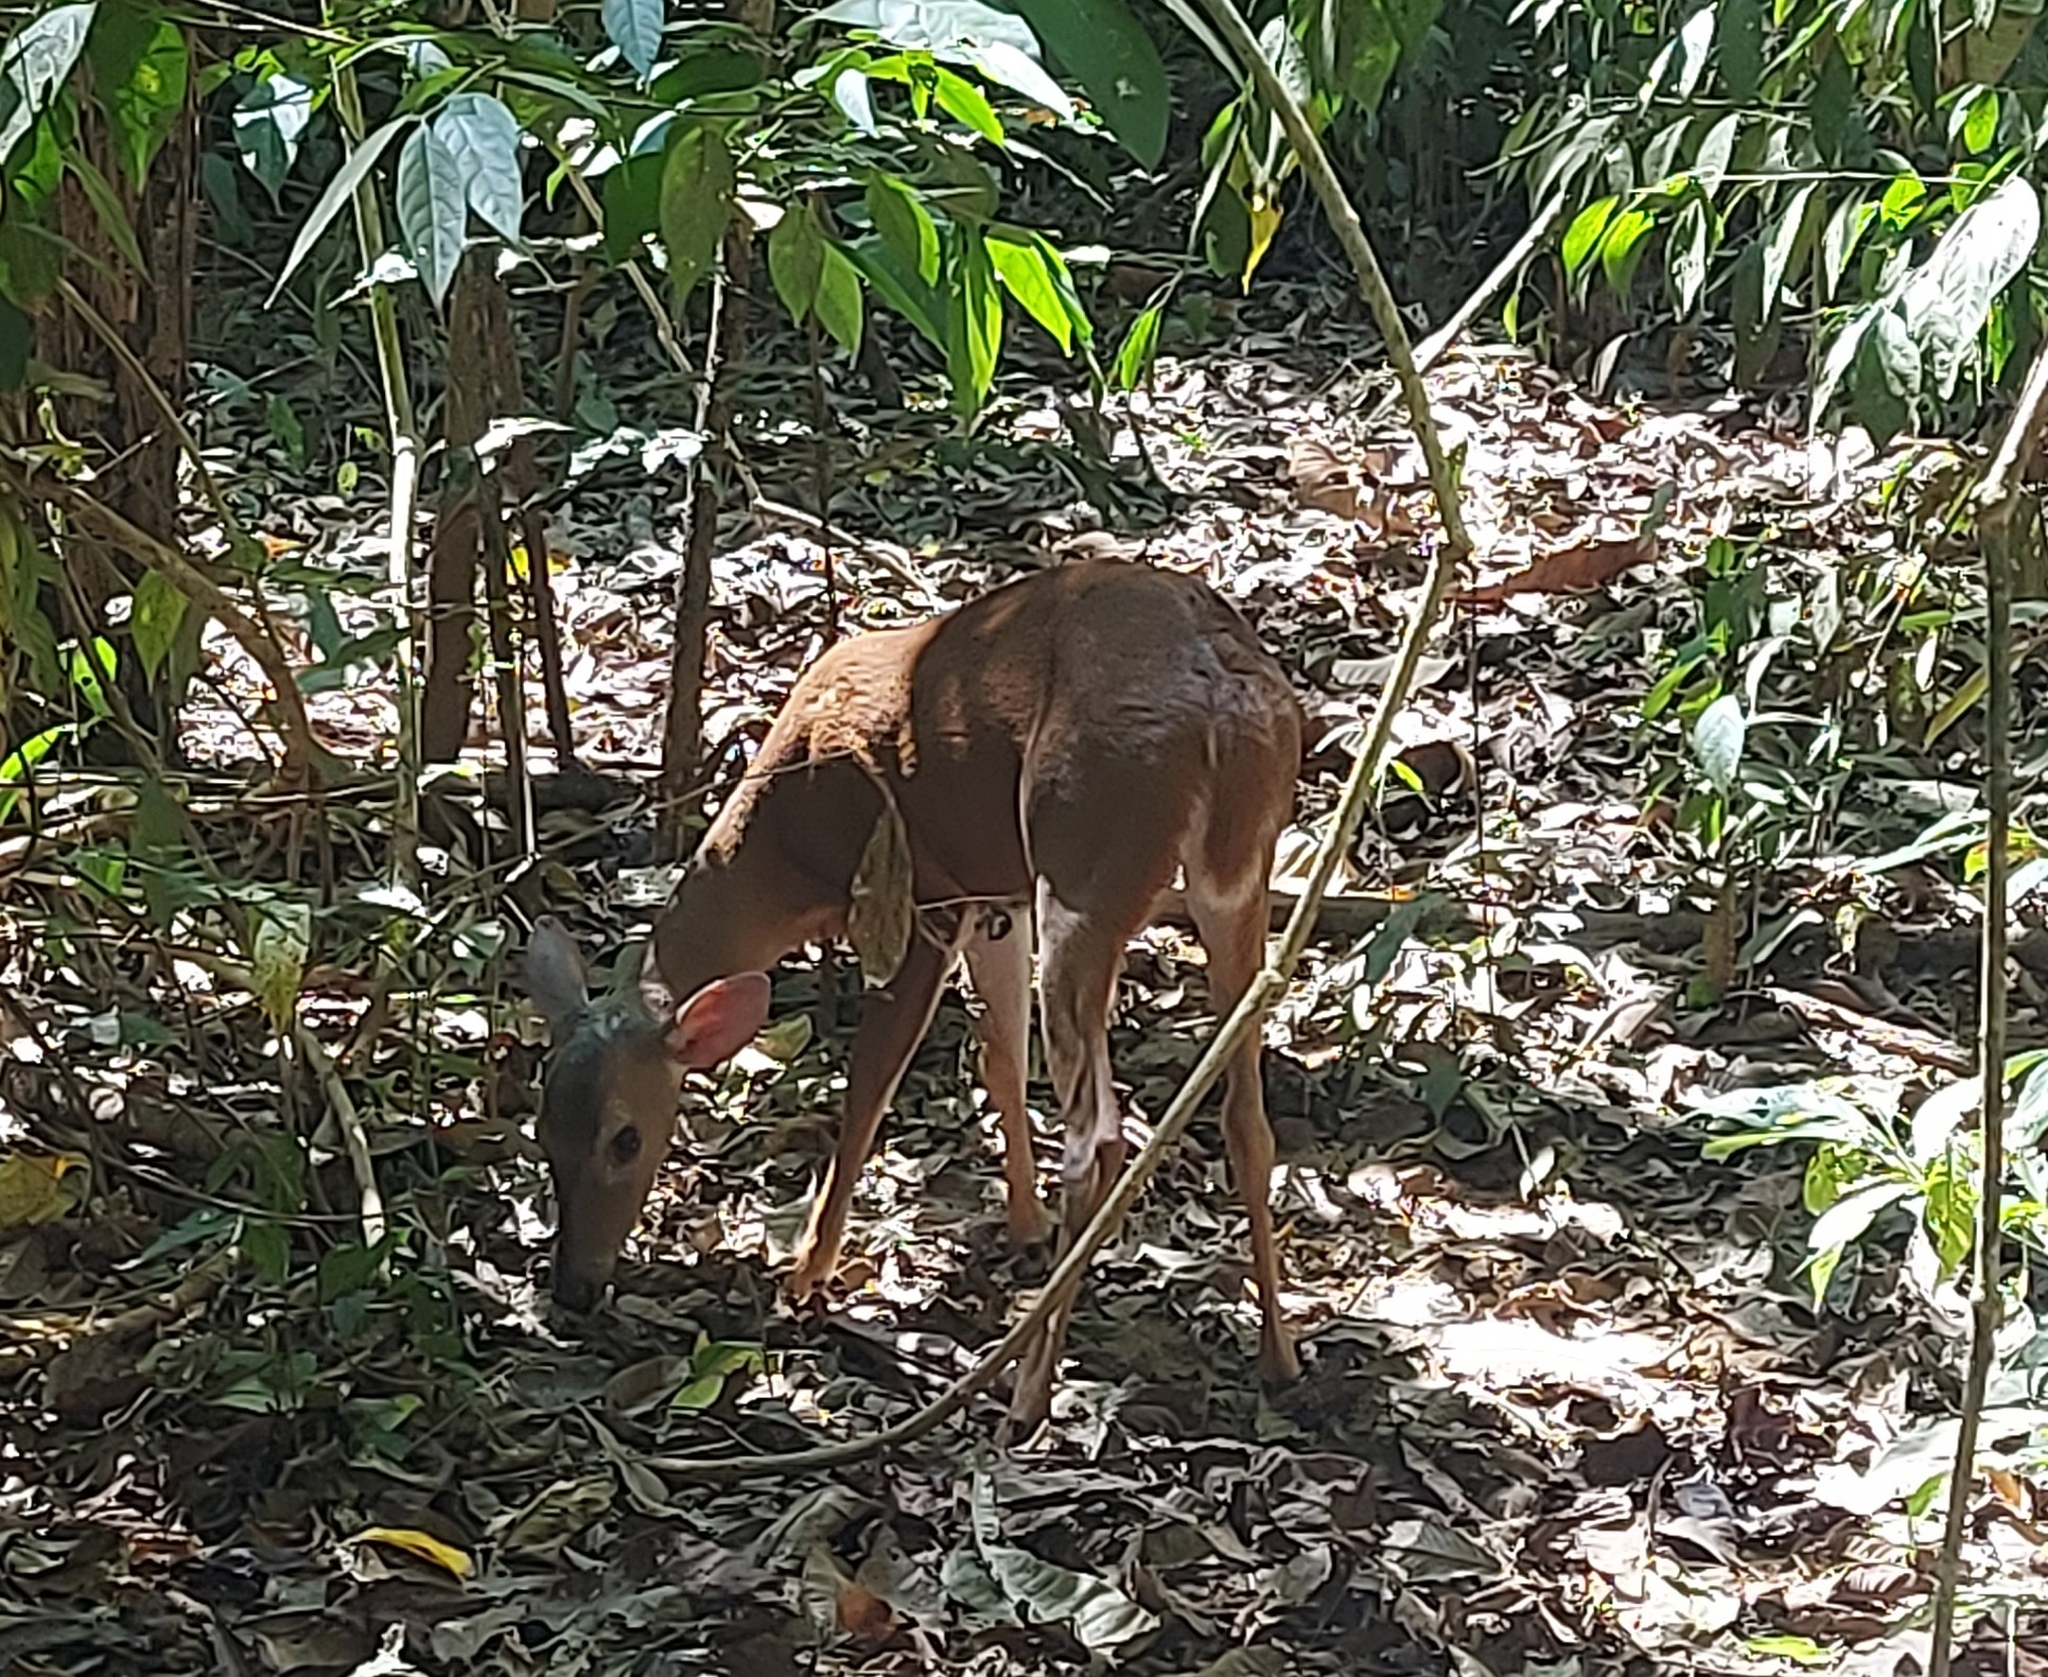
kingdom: Animalia
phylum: Chordata
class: Mammalia
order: Artiodactyla
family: Cervidae
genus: Odocoileus
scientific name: Odocoileus virginianus
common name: White-tailed deer
